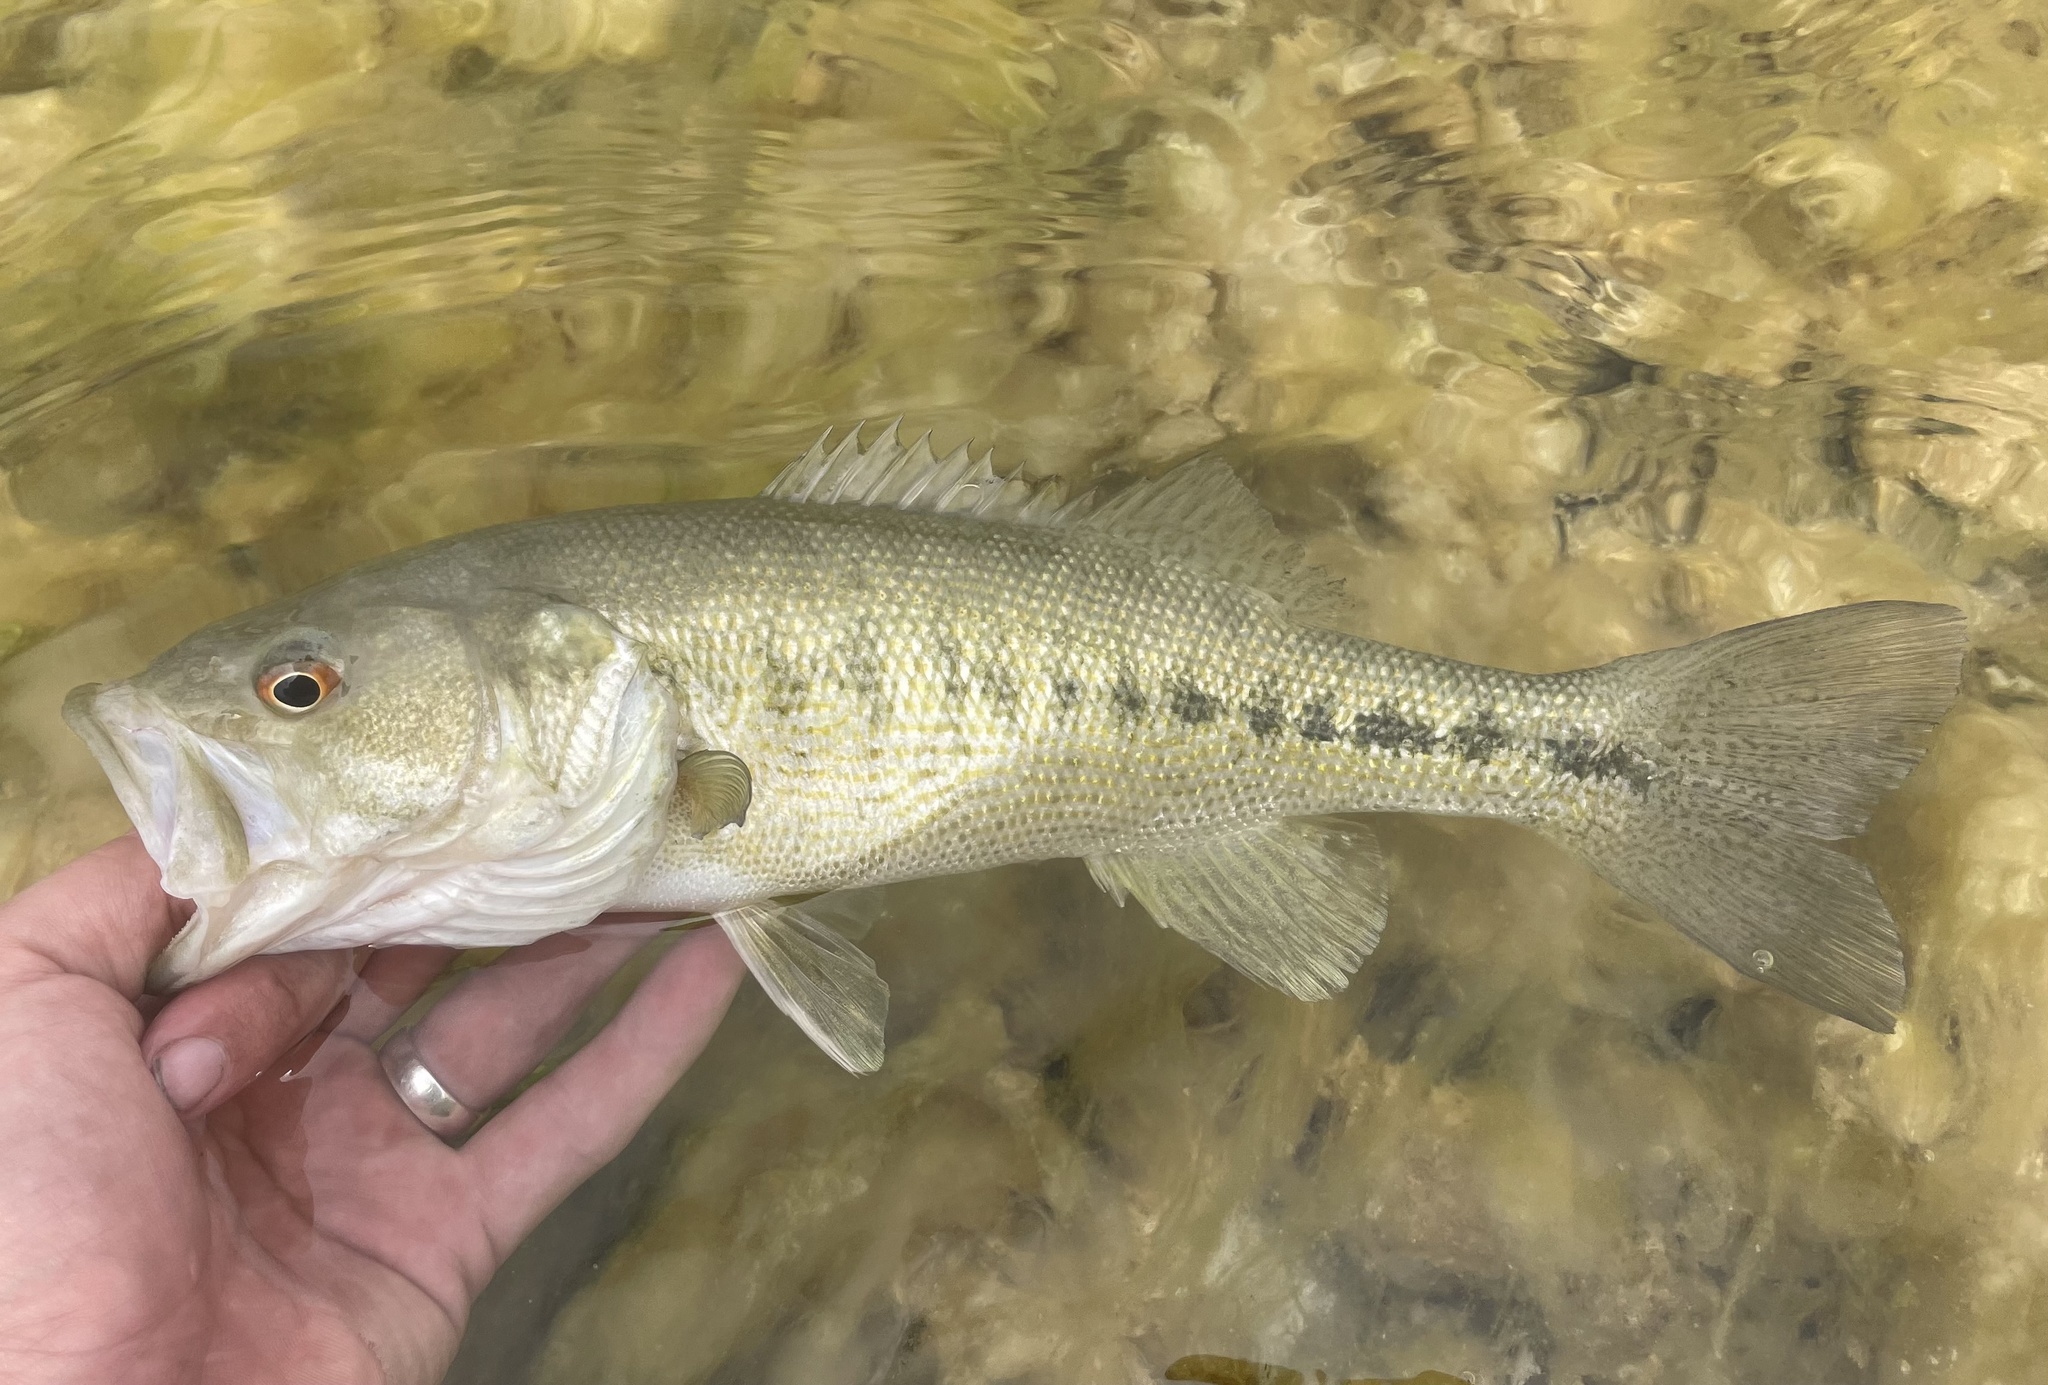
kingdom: Animalia
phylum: Chordata
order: Perciformes
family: Centrarchidae
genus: Micropterus
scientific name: Micropterus treculii
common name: Guadalupe bass
